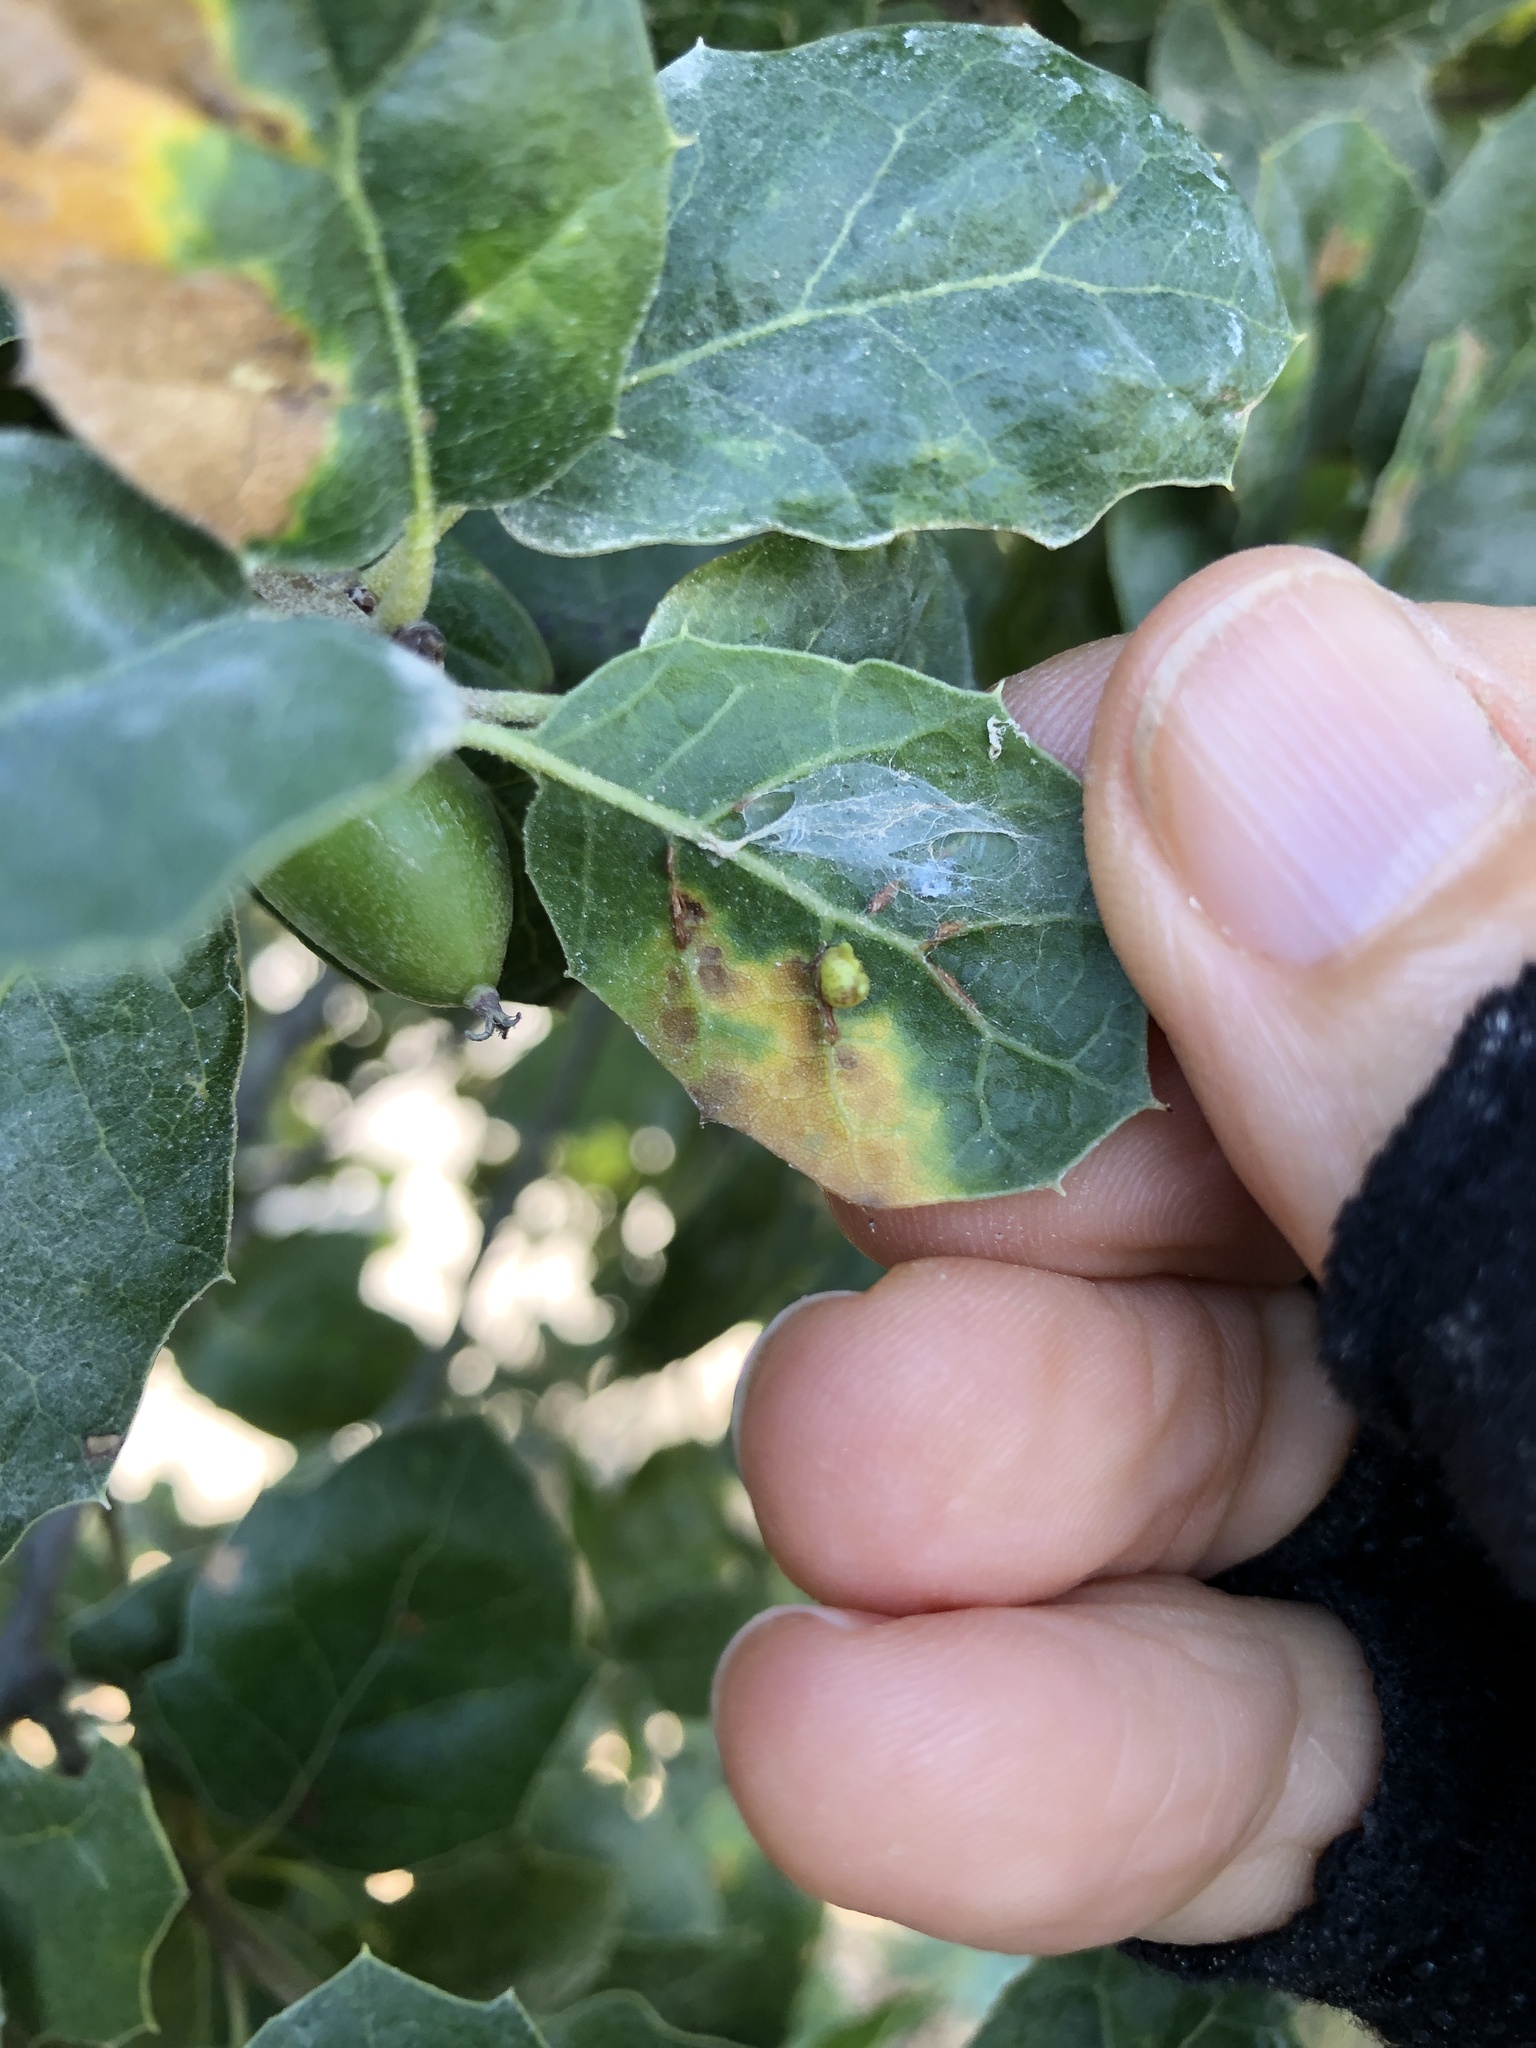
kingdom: Animalia
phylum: Arthropoda
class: Insecta
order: Hymenoptera
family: Cynipidae
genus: Dryocosmus
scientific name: Dryocosmus
